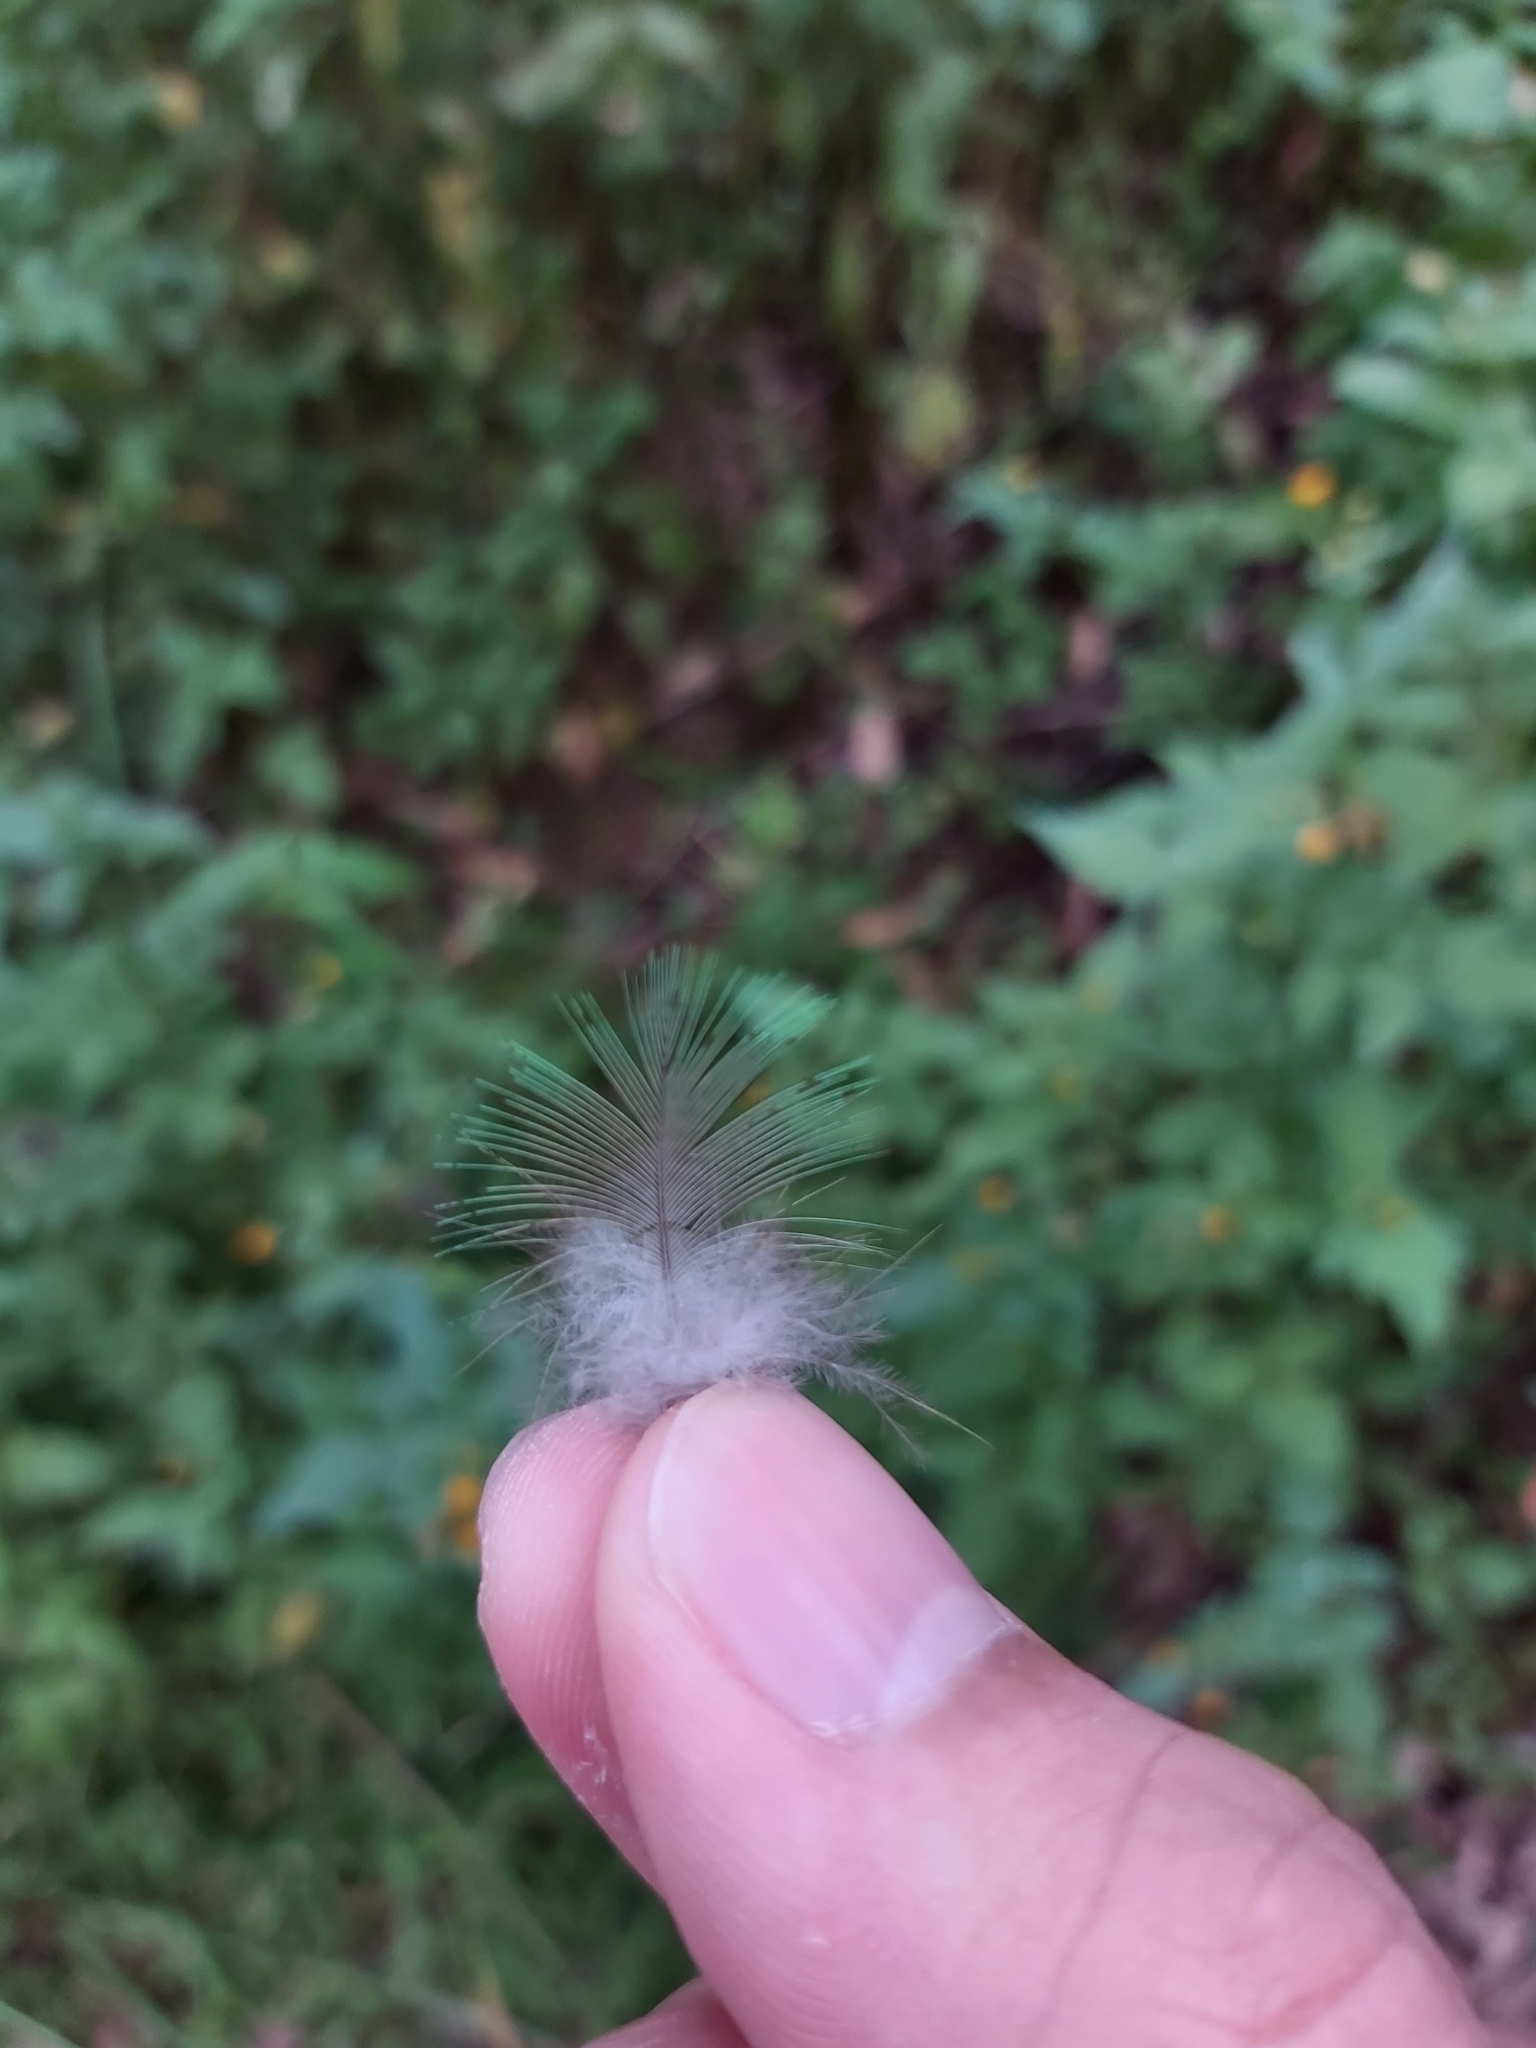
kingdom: Animalia
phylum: Chordata
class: Aves
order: Psittaciformes
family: Psittacidae
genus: Trichoglossus
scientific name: Trichoglossus haematodus
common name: Coconut lorikeet
